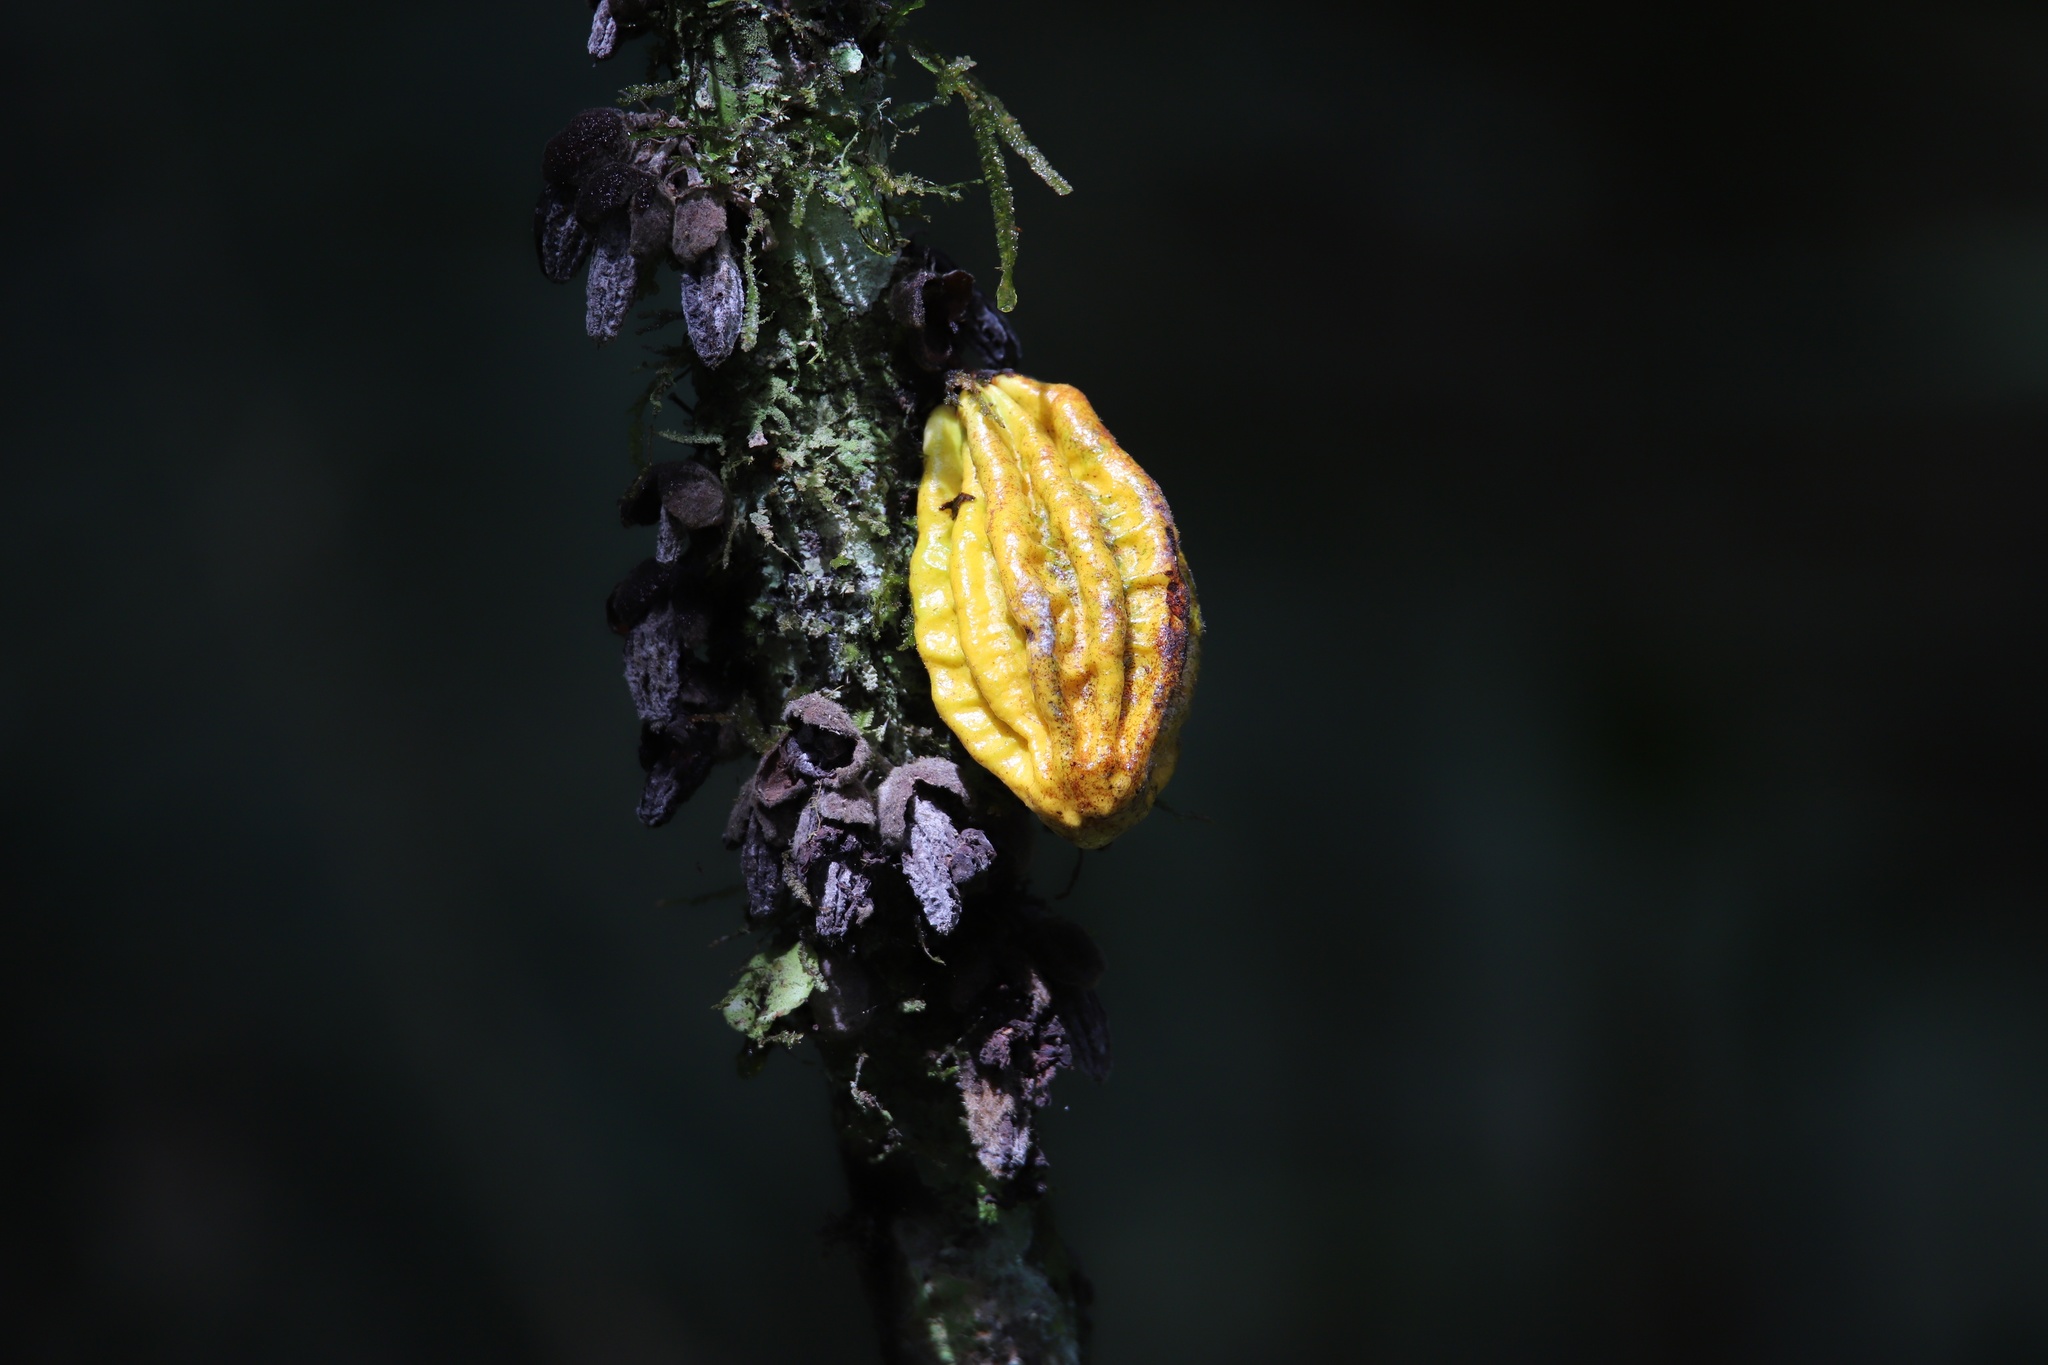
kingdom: Plantae
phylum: Tracheophyta
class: Magnoliopsida
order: Malvales
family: Malvaceae
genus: Theobroma
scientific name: Theobroma cacao
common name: Cocoa
